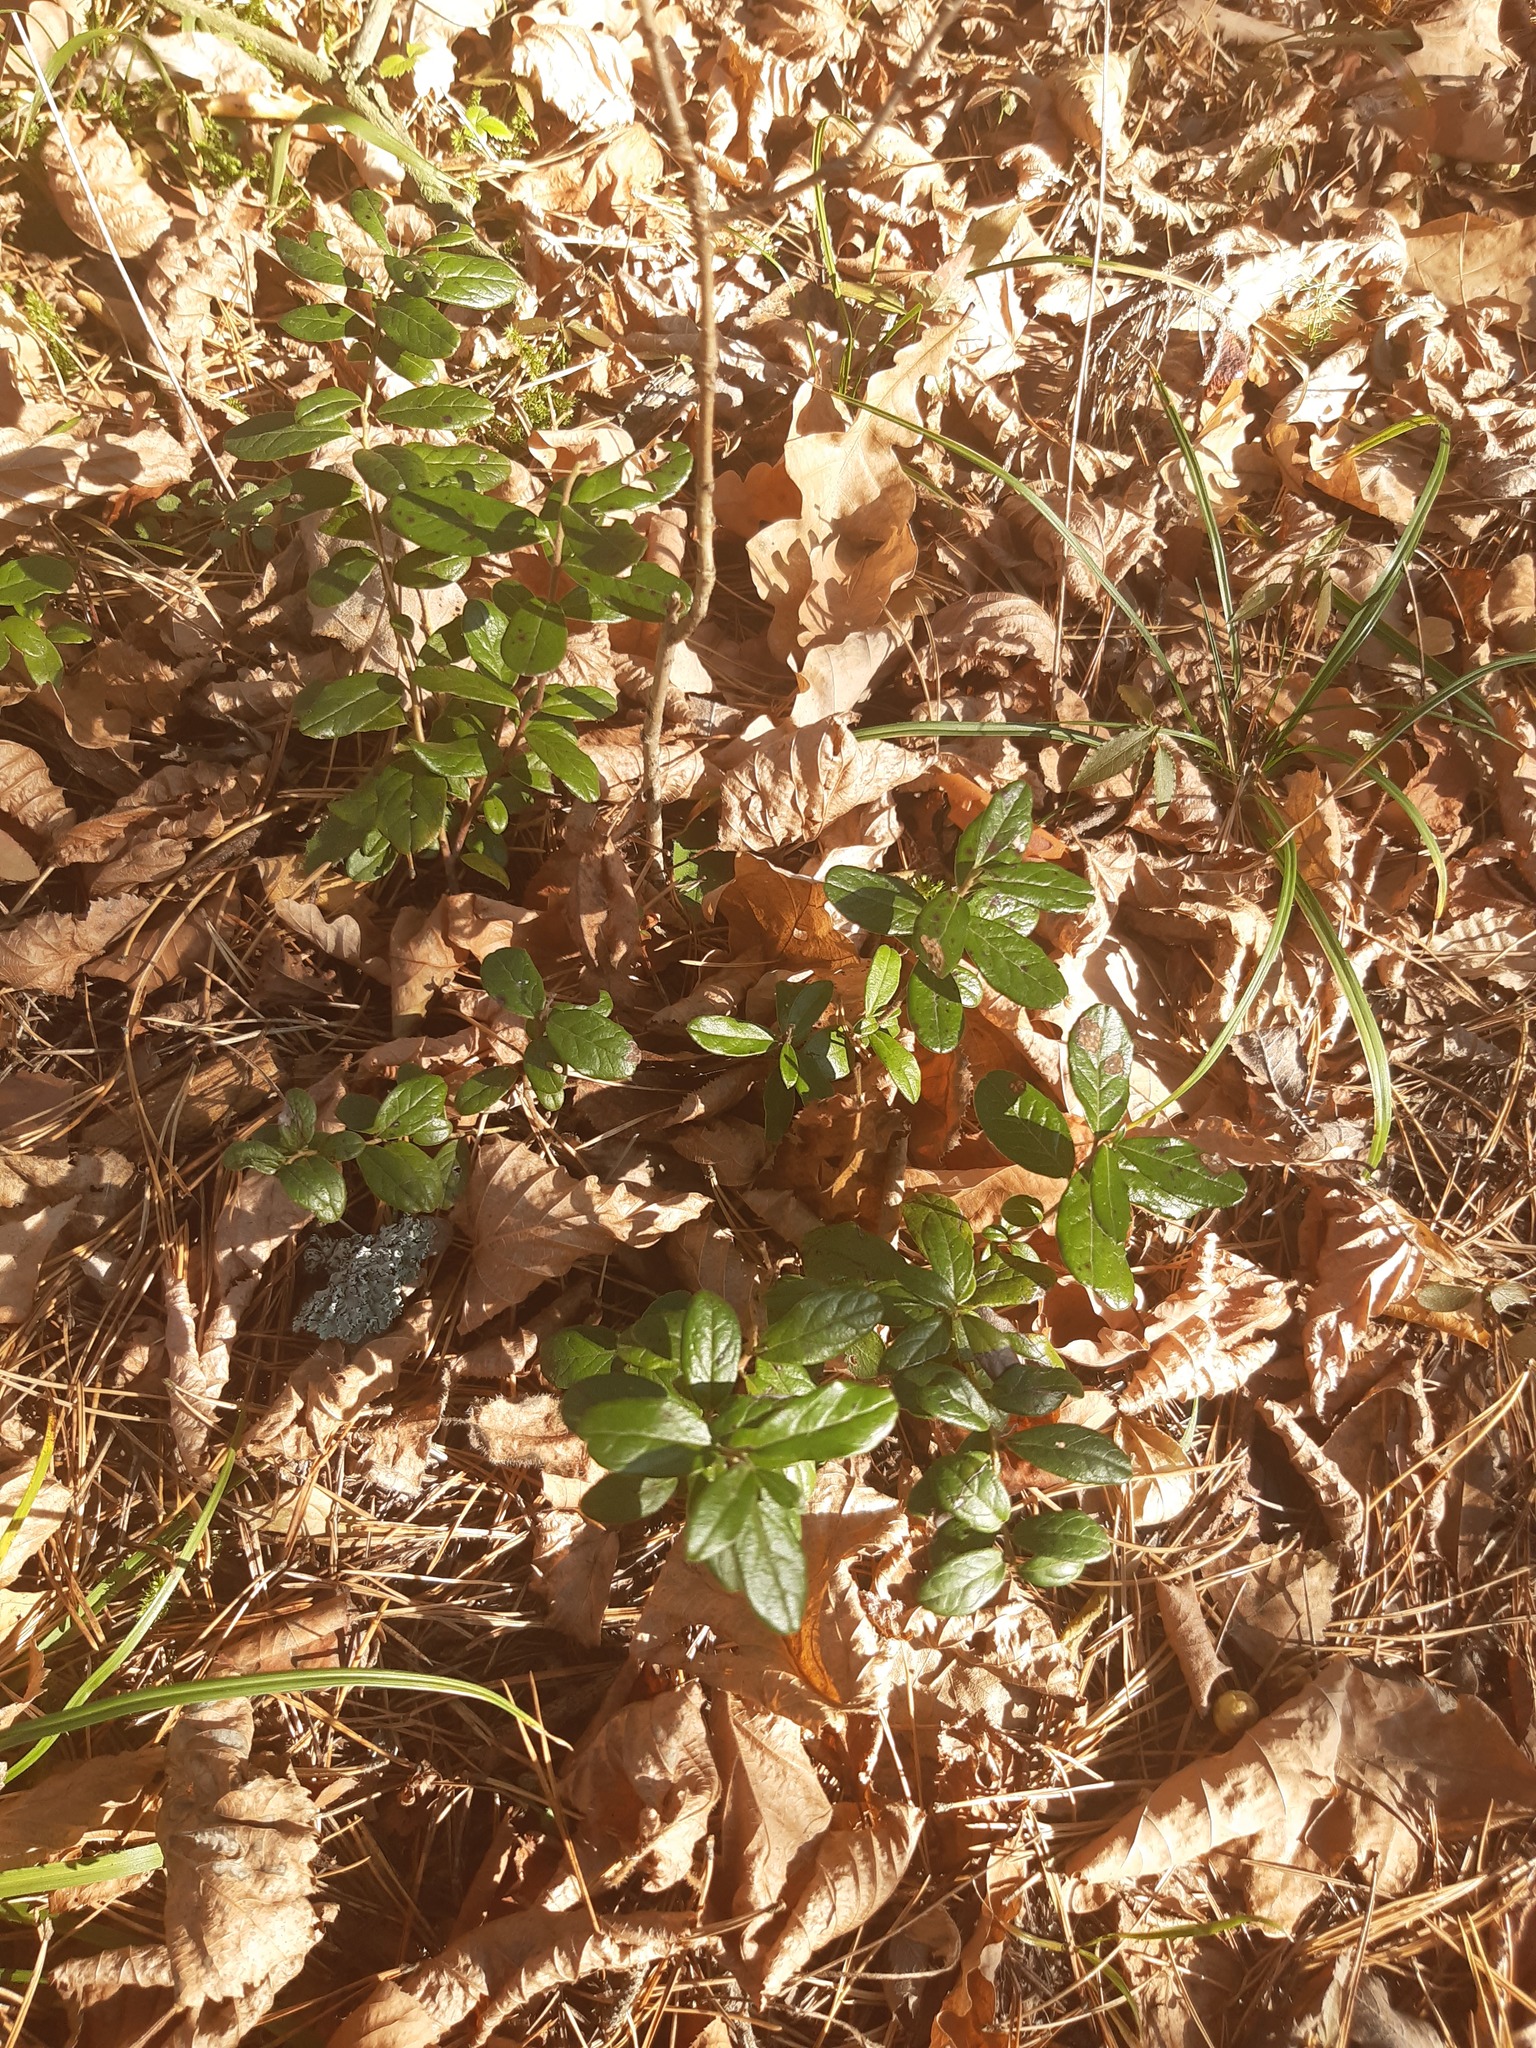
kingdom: Plantae
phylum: Tracheophyta
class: Magnoliopsida
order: Ericales
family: Ericaceae
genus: Vaccinium
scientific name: Vaccinium vitis-idaea
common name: Cowberry
